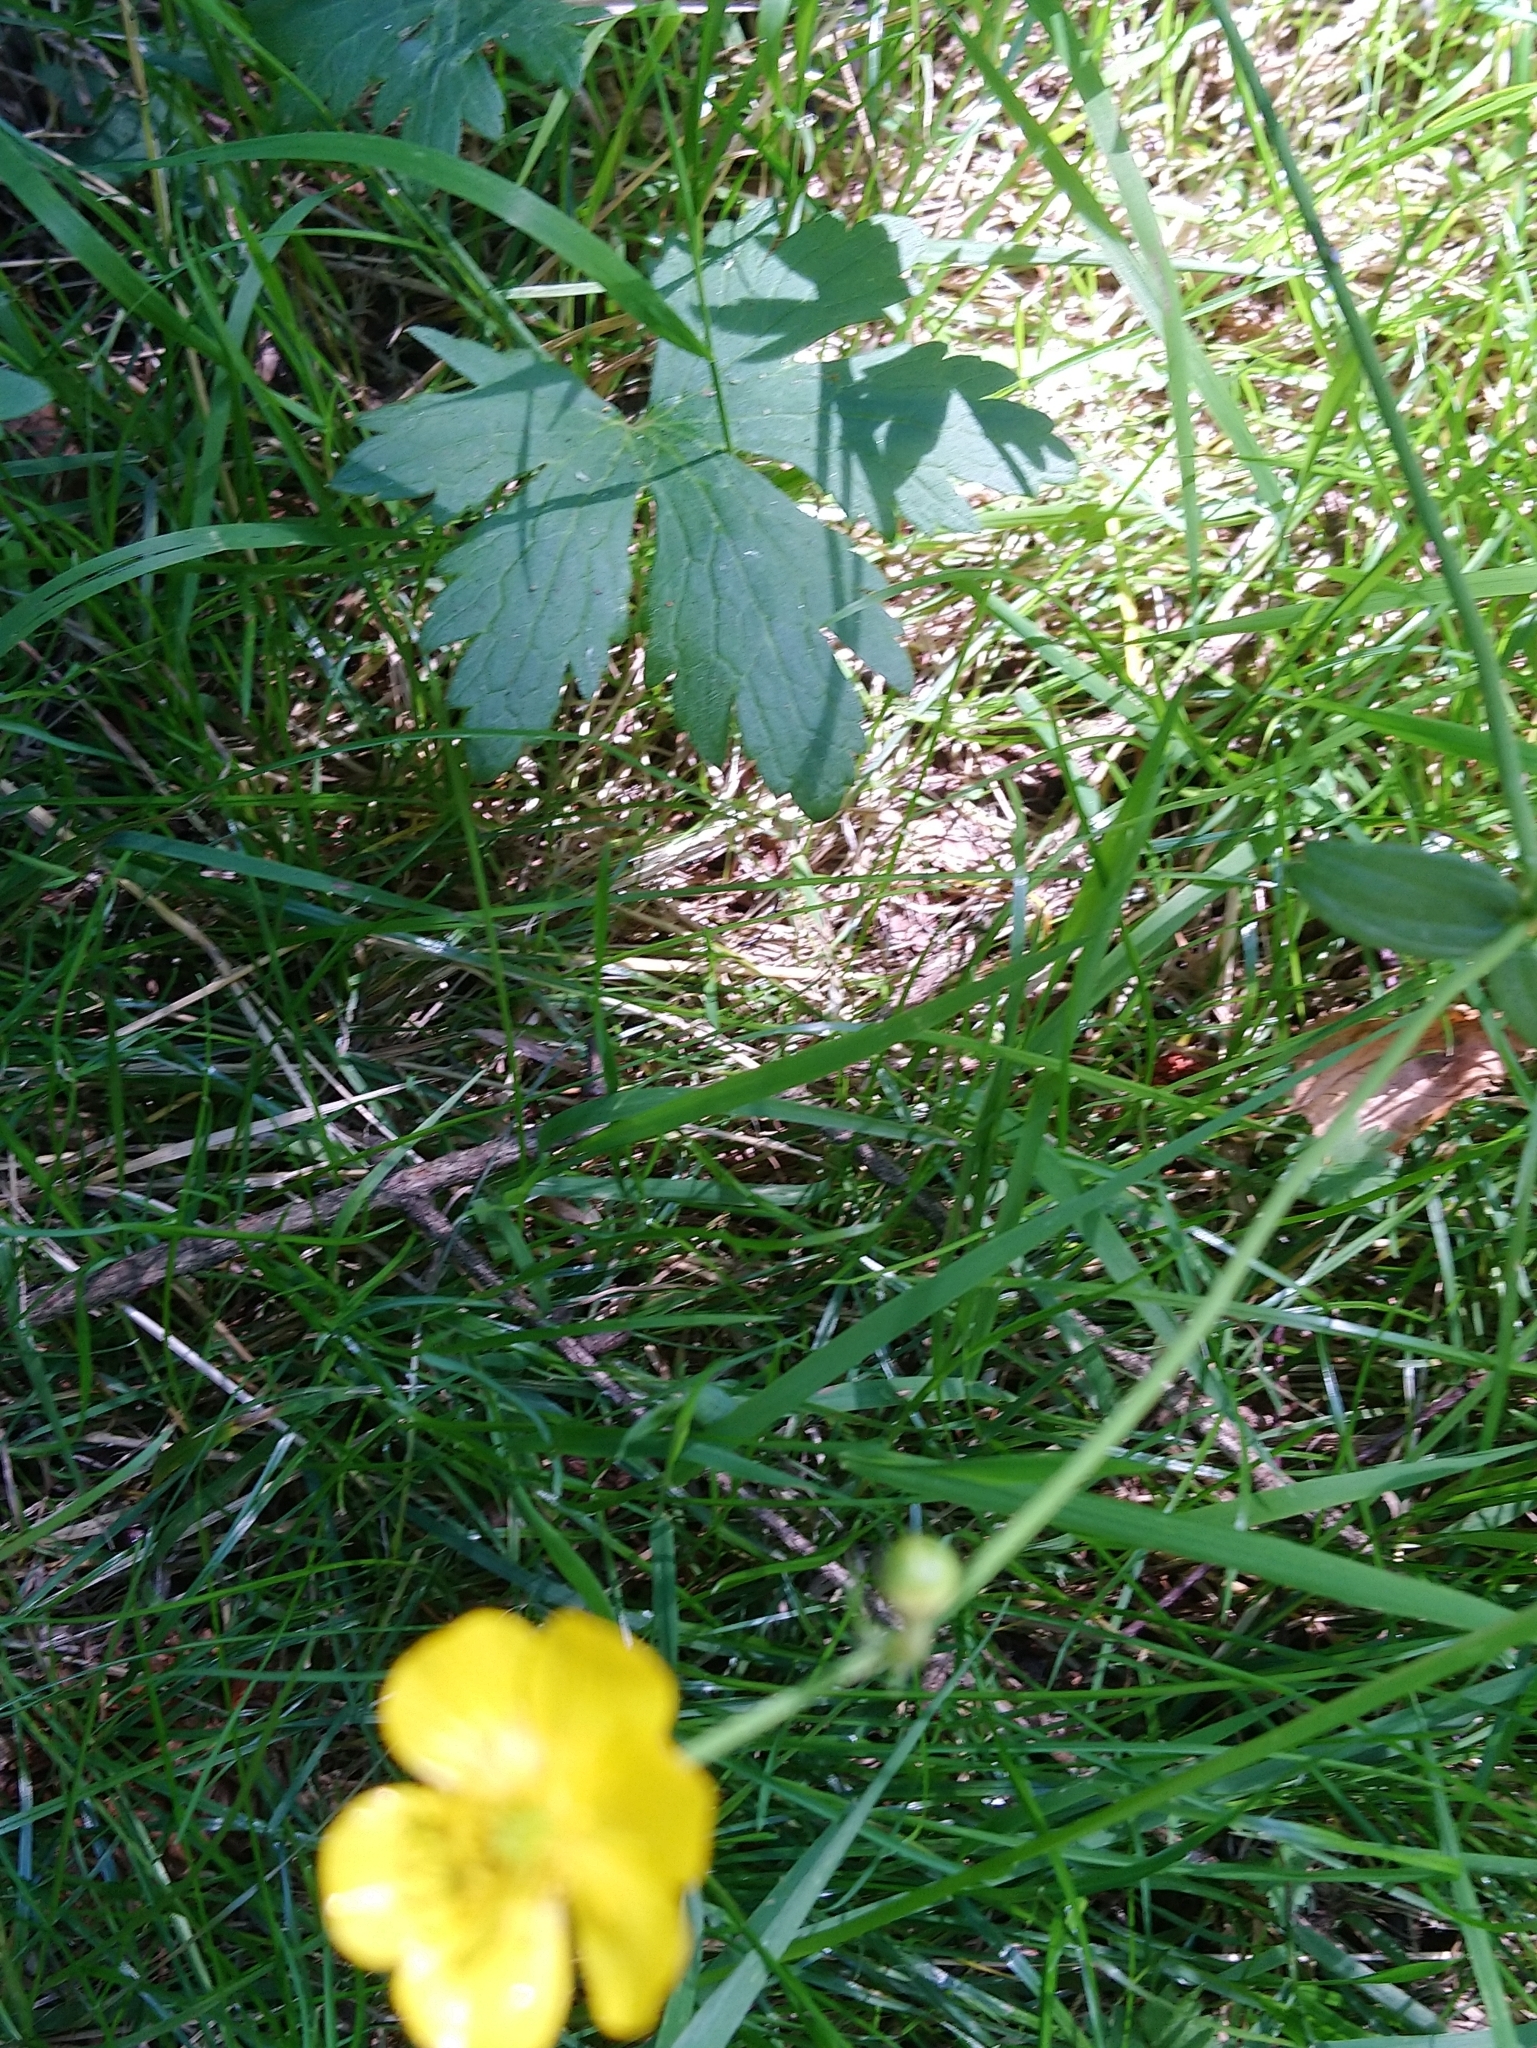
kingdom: Plantae
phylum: Tracheophyta
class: Magnoliopsida
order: Ranunculales
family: Ranunculaceae
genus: Ranunculus
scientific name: Ranunculus acris
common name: Meadow buttercup
